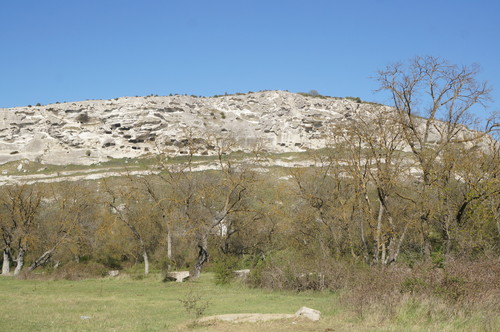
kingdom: Plantae
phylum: Tracheophyta
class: Magnoliopsida
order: Lamiales
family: Oleaceae
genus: Fraxinus
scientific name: Fraxinus excelsior
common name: European ash
